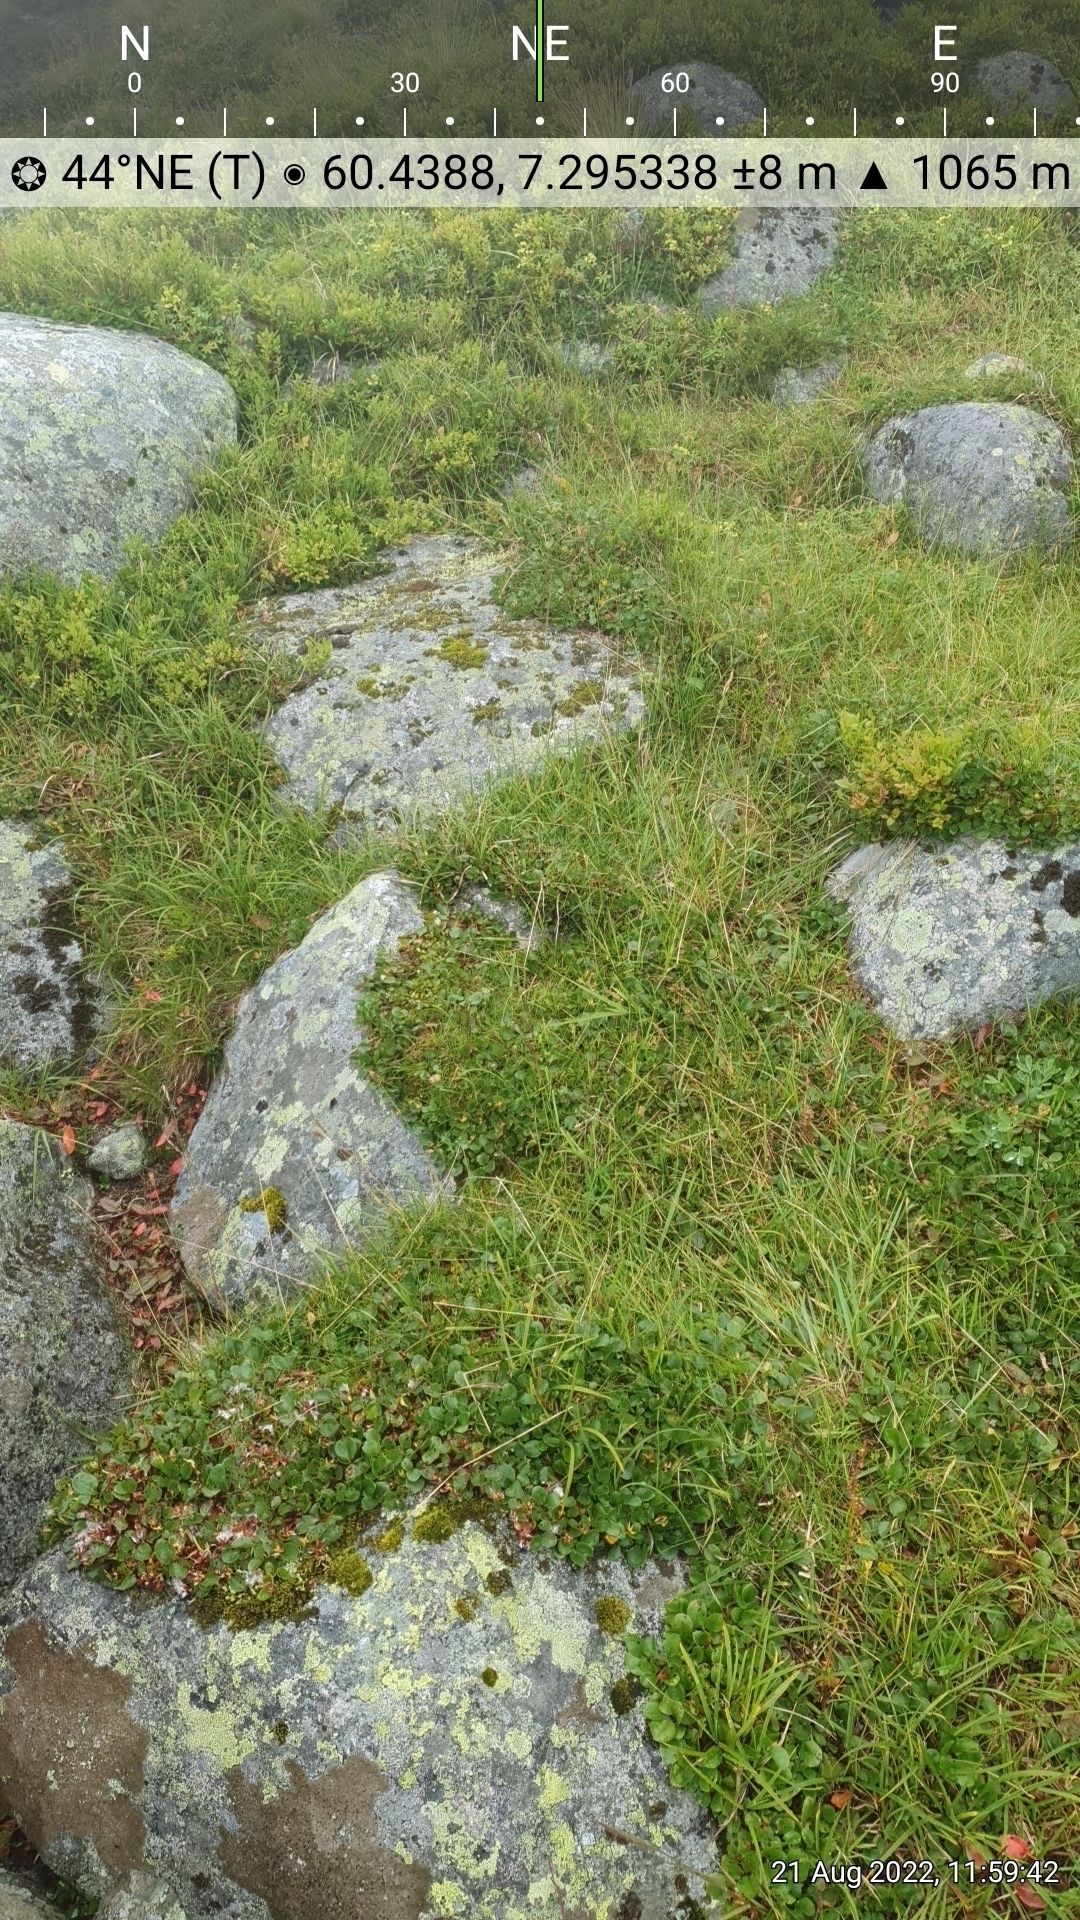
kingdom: Plantae
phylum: Tracheophyta
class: Magnoliopsida
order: Fagales
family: Betulaceae
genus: Betula
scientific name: Betula nana
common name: Arctic dwarf birch
